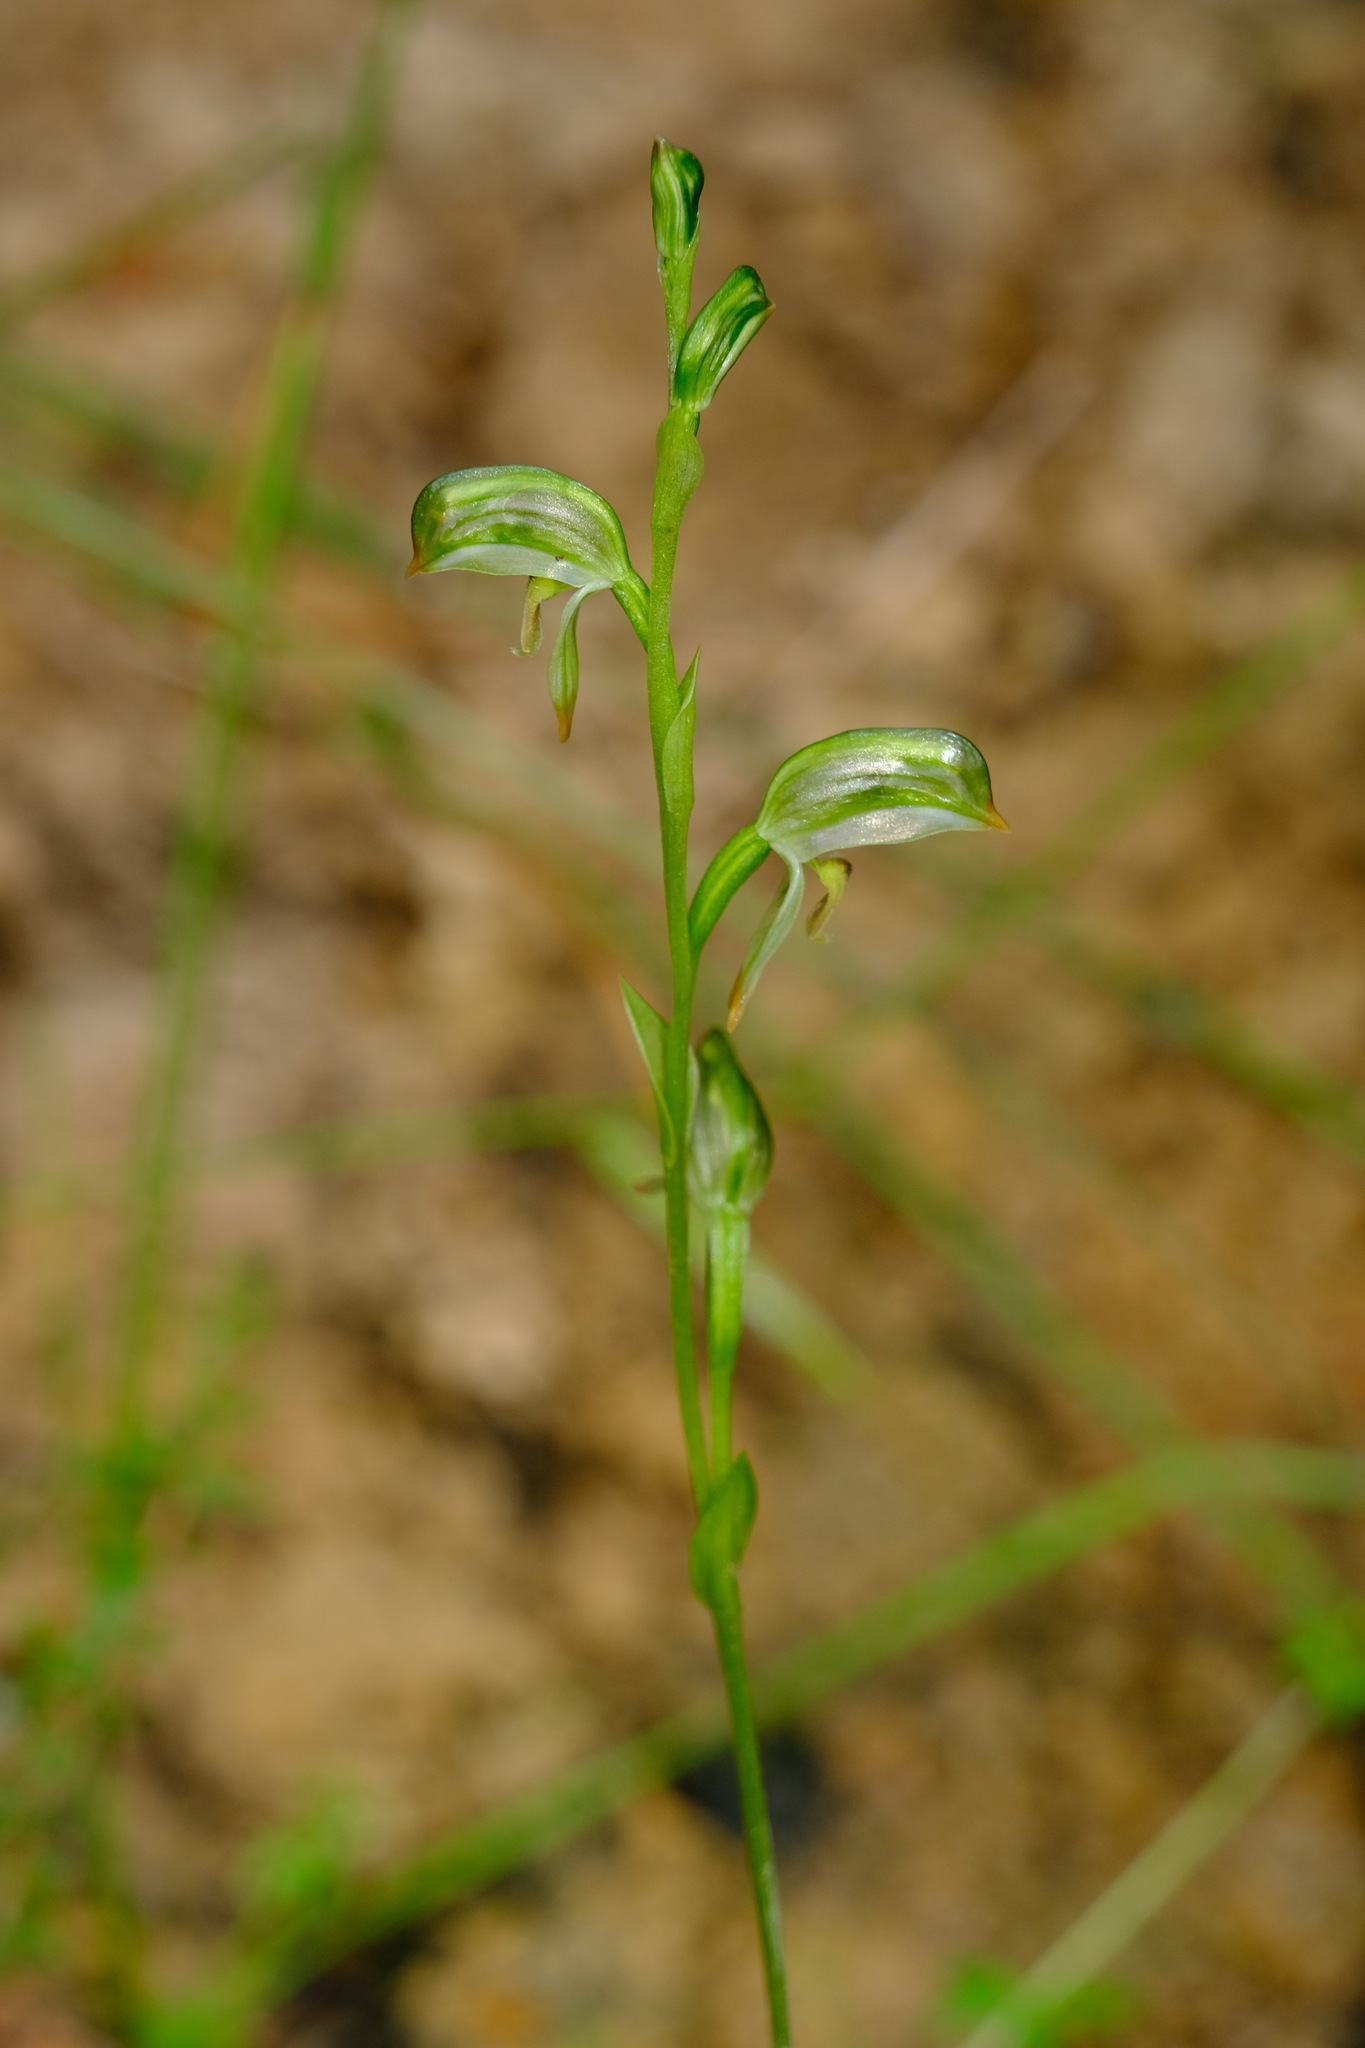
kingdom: Plantae
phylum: Tracheophyta
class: Liliopsida
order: Asparagales
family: Orchidaceae
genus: Pterostylis
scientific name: Pterostylis melagramma
